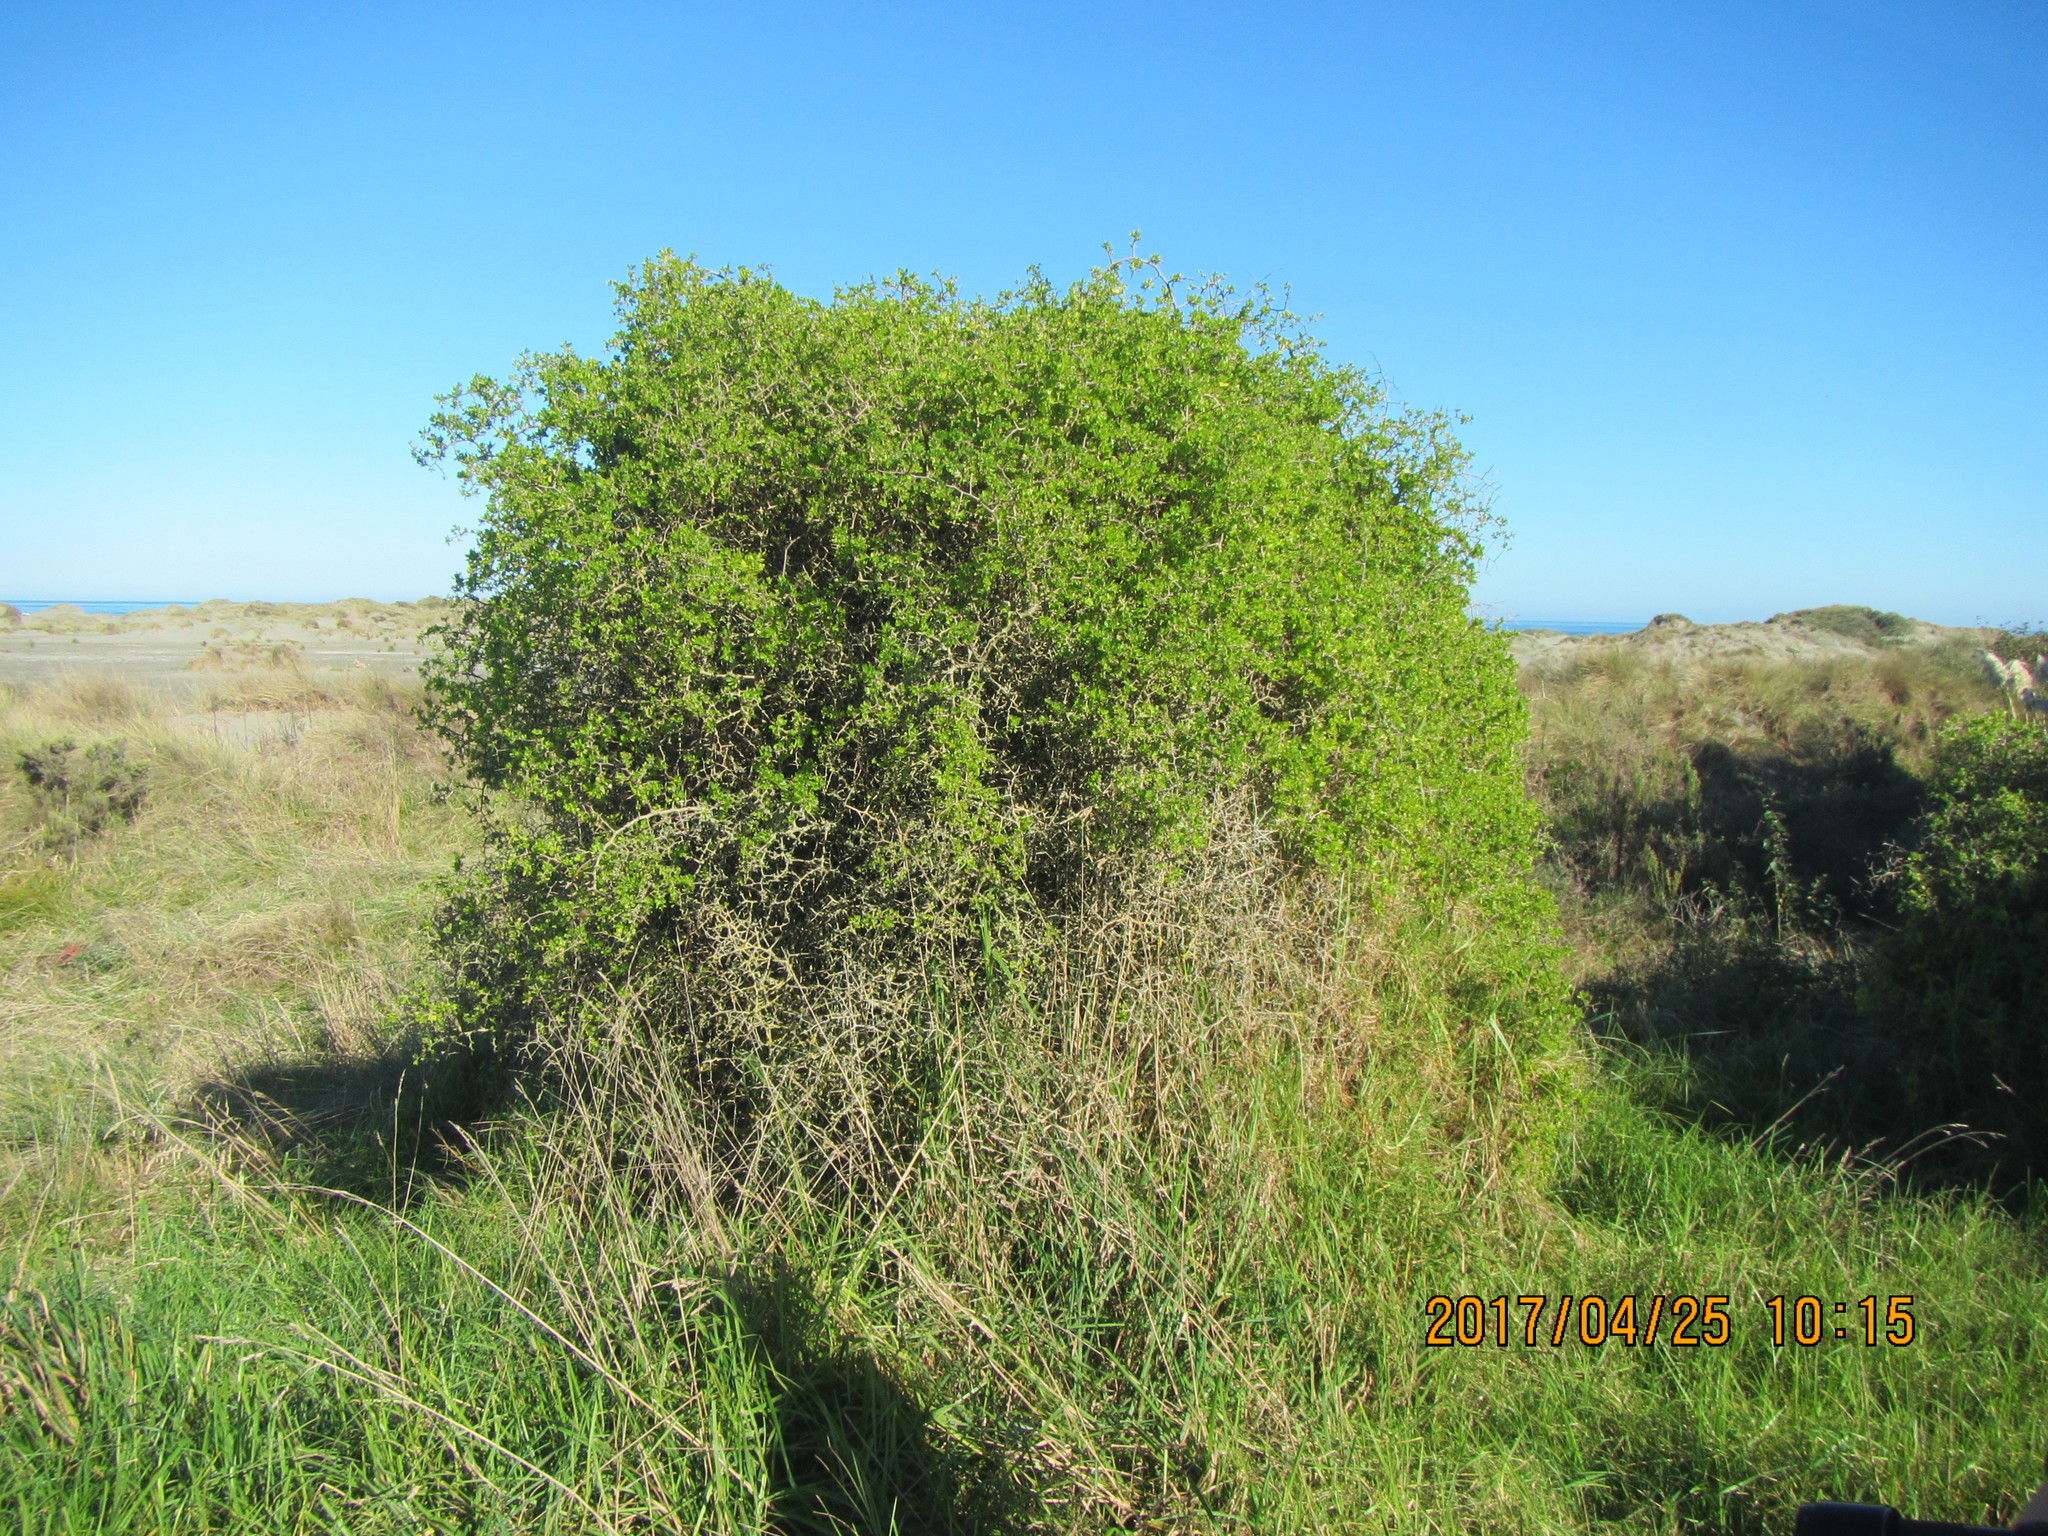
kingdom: Plantae
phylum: Tracheophyta
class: Magnoliopsida
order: Solanales
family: Solanaceae
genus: Lycium
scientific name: Lycium ferocissimum
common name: African boxthorn
